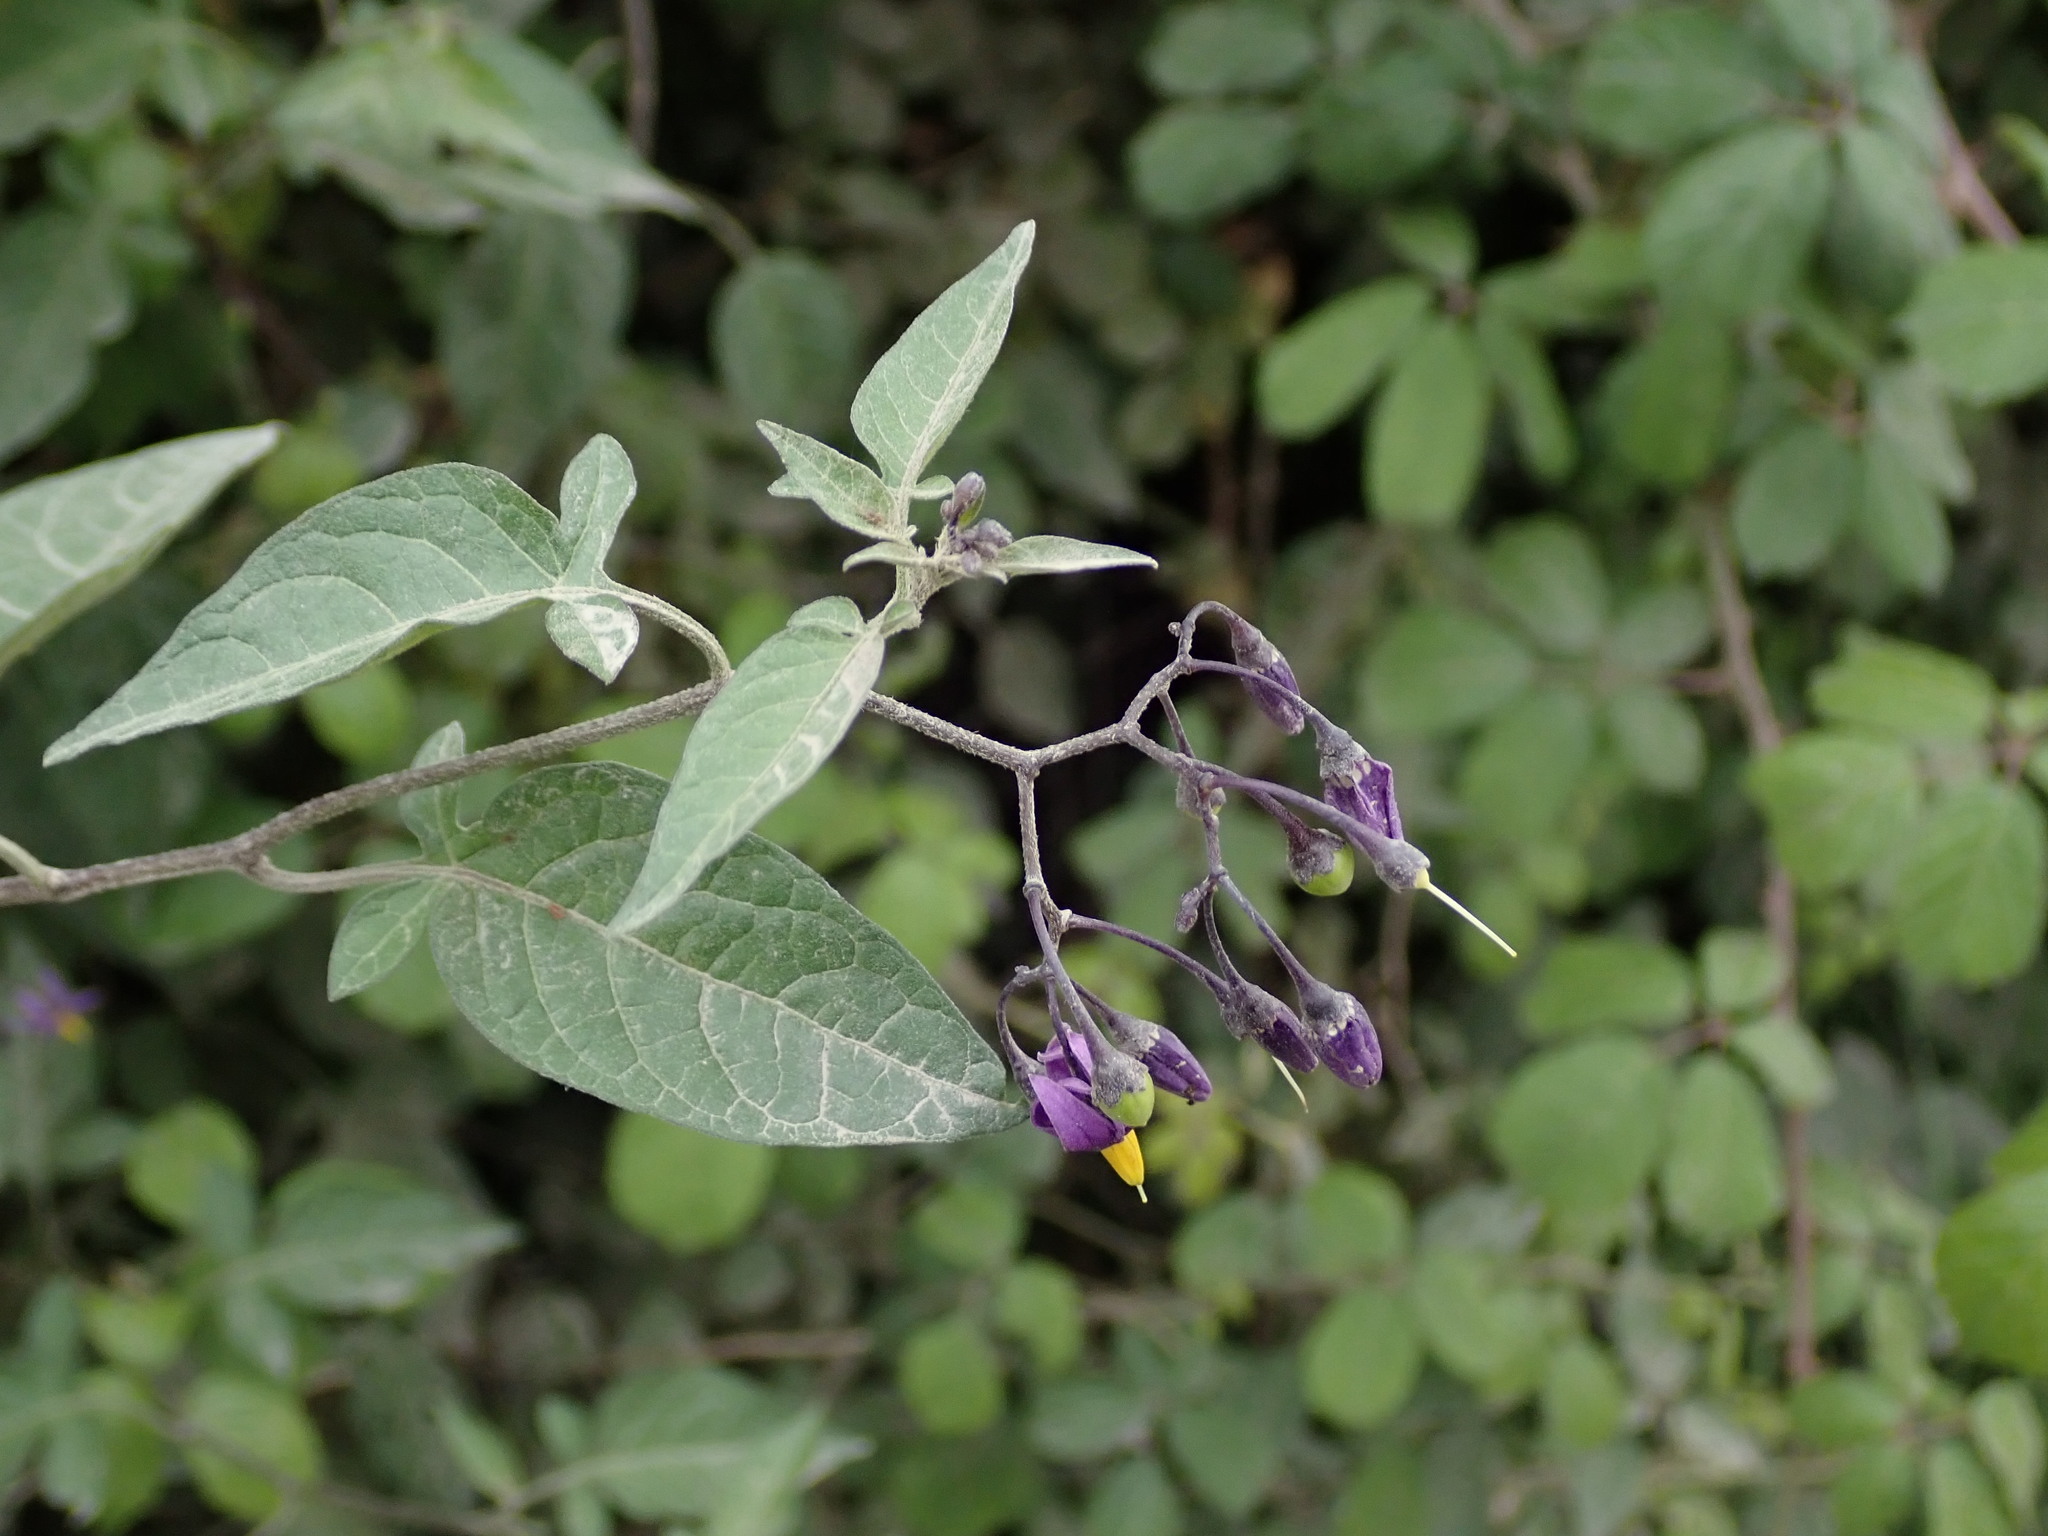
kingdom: Plantae
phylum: Tracheophyta
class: Magnoliopsida
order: Solanales
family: Solanaceae
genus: Solanum
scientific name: Solanum dulcamara
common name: Climbing nightshade
